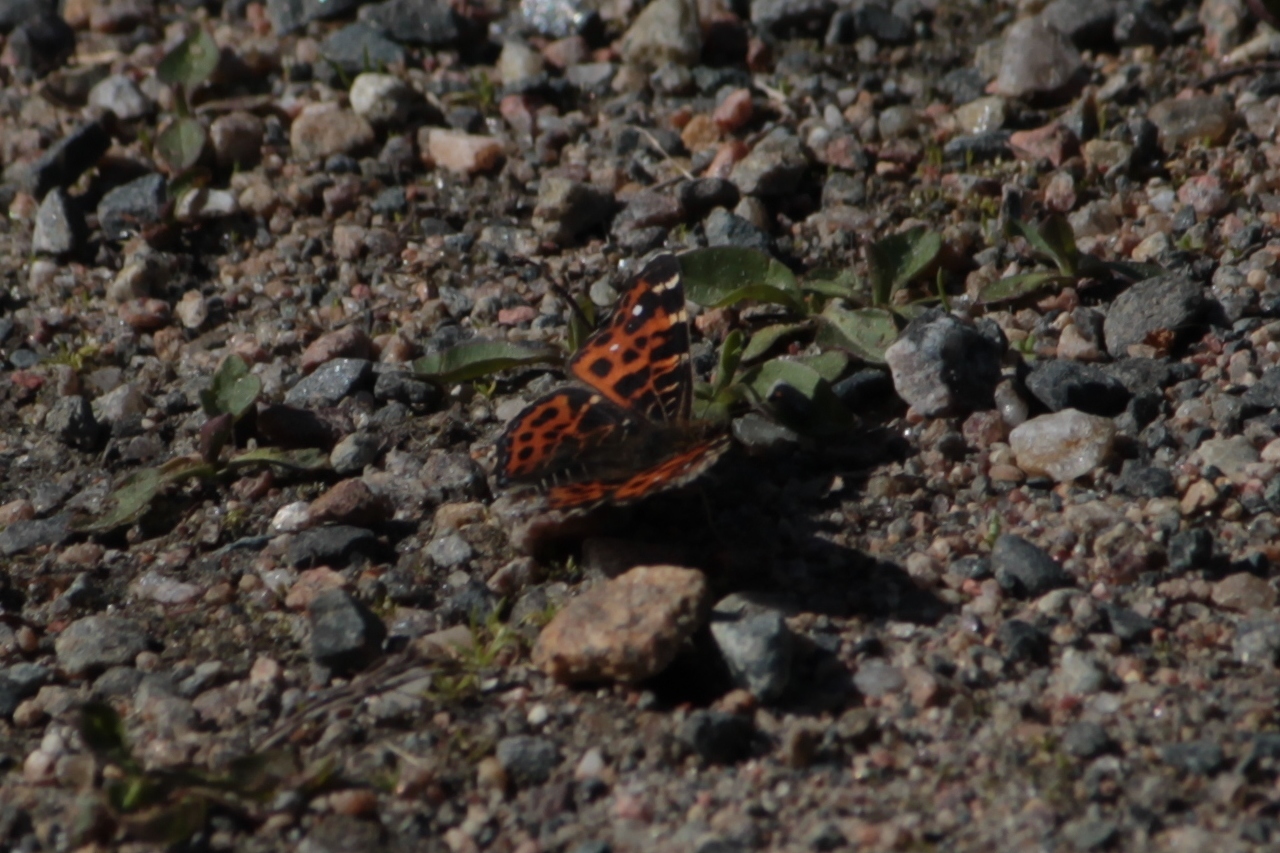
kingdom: Animalia
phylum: Arthropoda
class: Insecta
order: Lepidoptera
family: Nymphalidae
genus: Araschnia
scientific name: Araschnia levana
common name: Map butterfly
